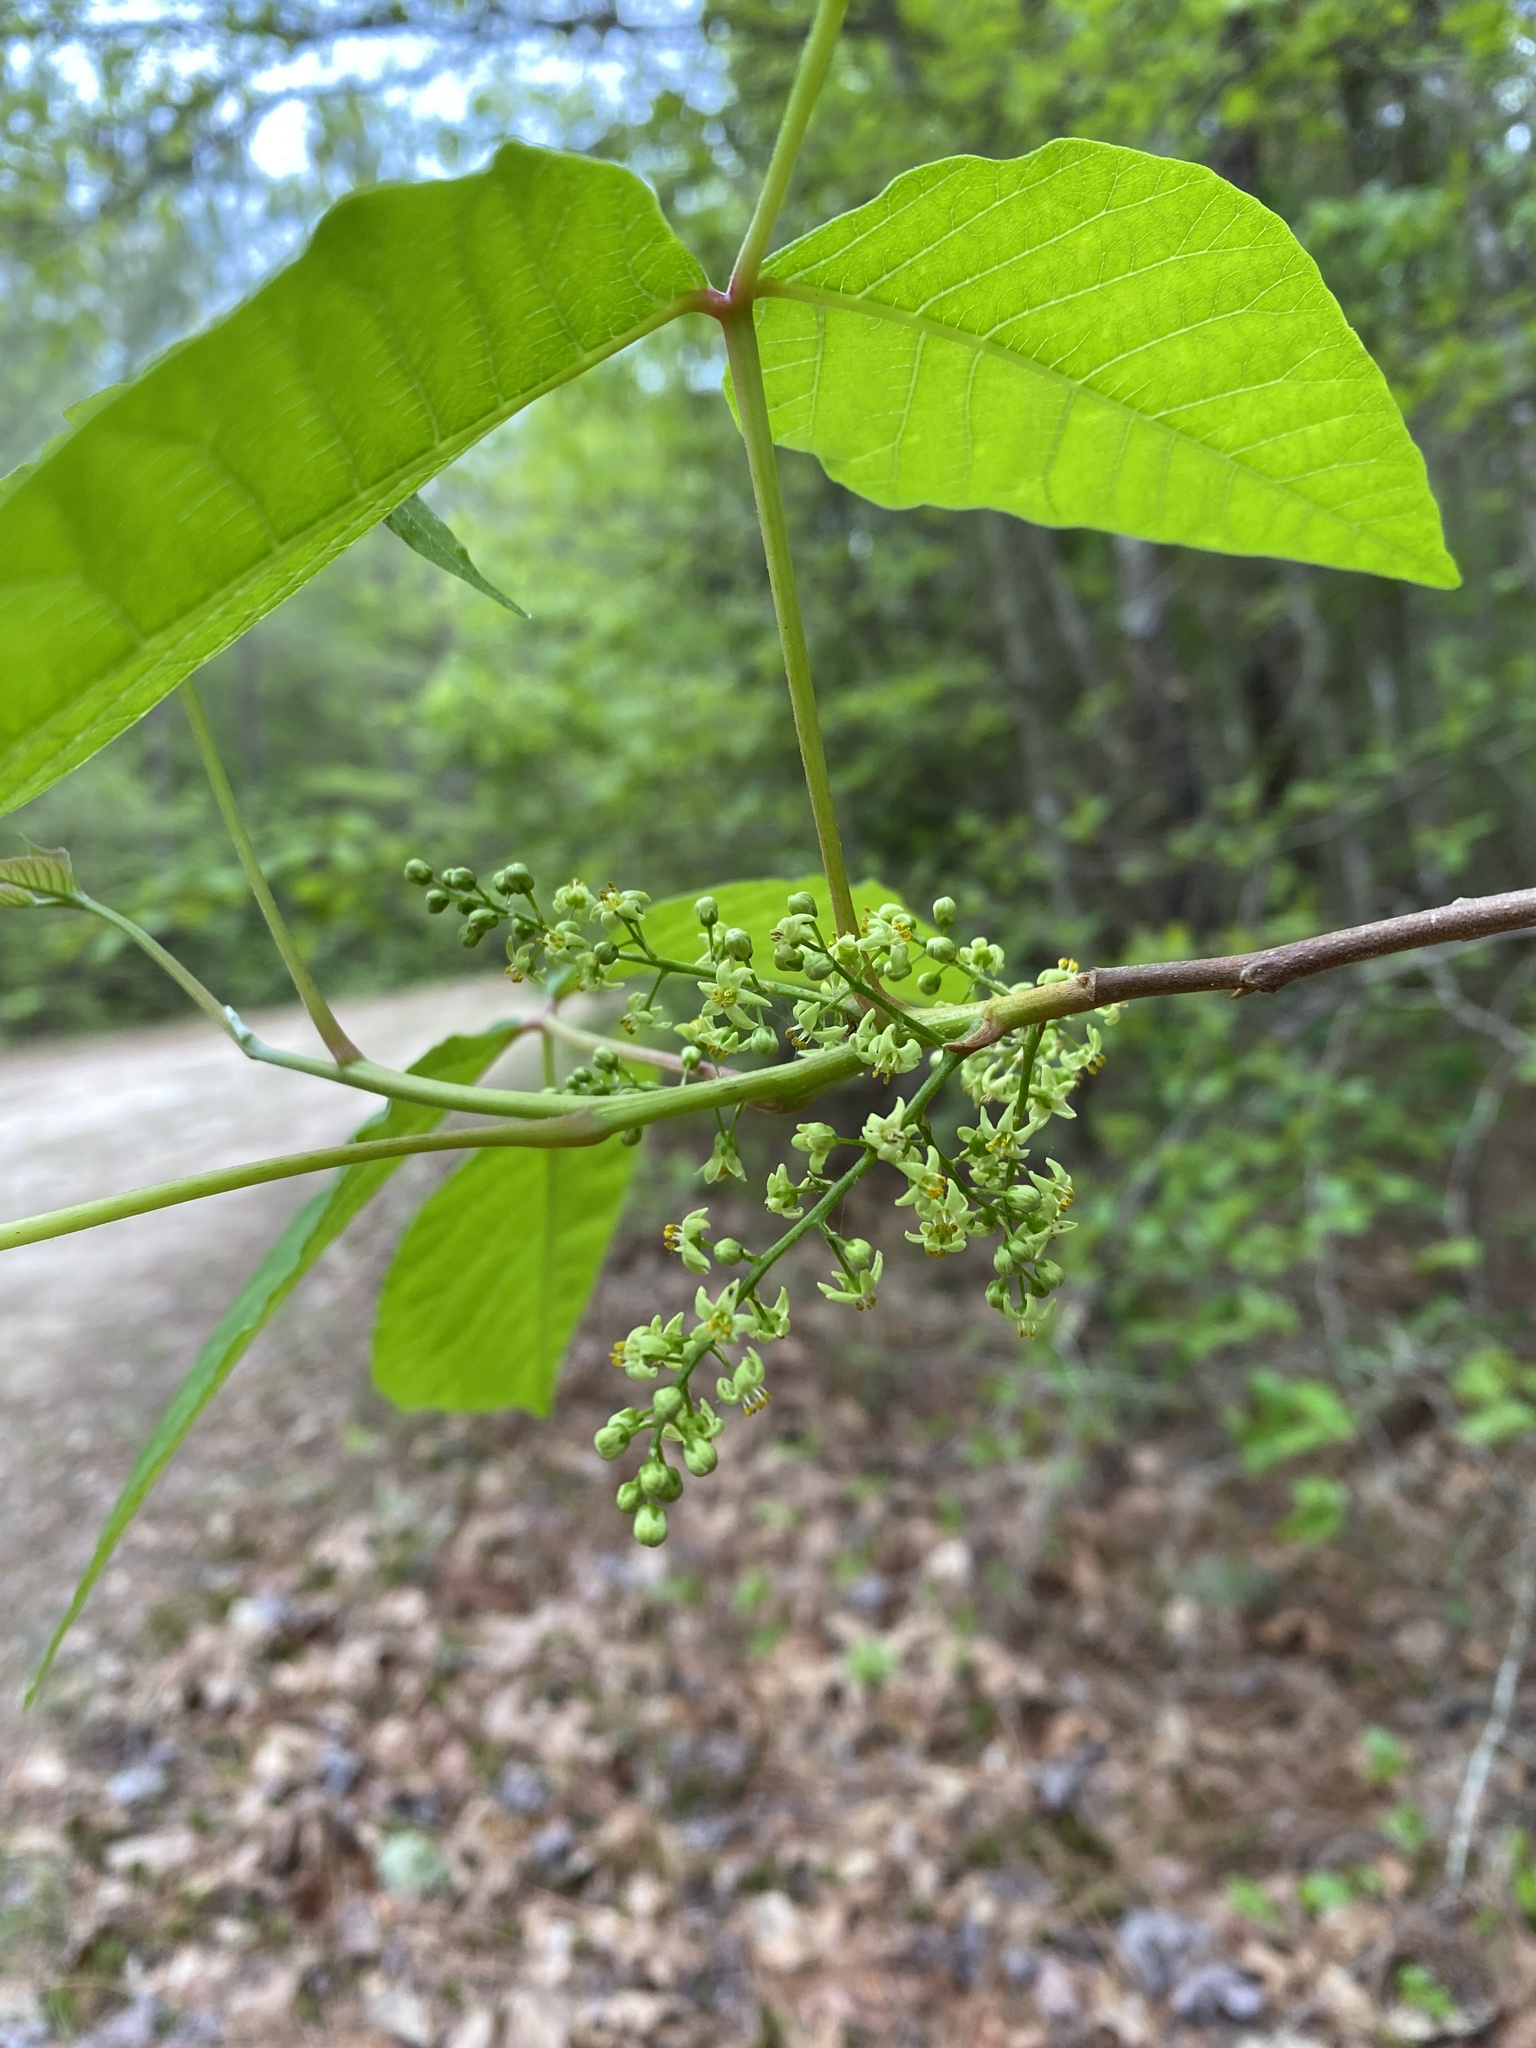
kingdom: Plantae
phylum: Tracheophyta
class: Magnoliopsida
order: Sapindales
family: Anacardiaceae
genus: Toxicodendron
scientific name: Toxicodendron radicans
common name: Poison ivy
